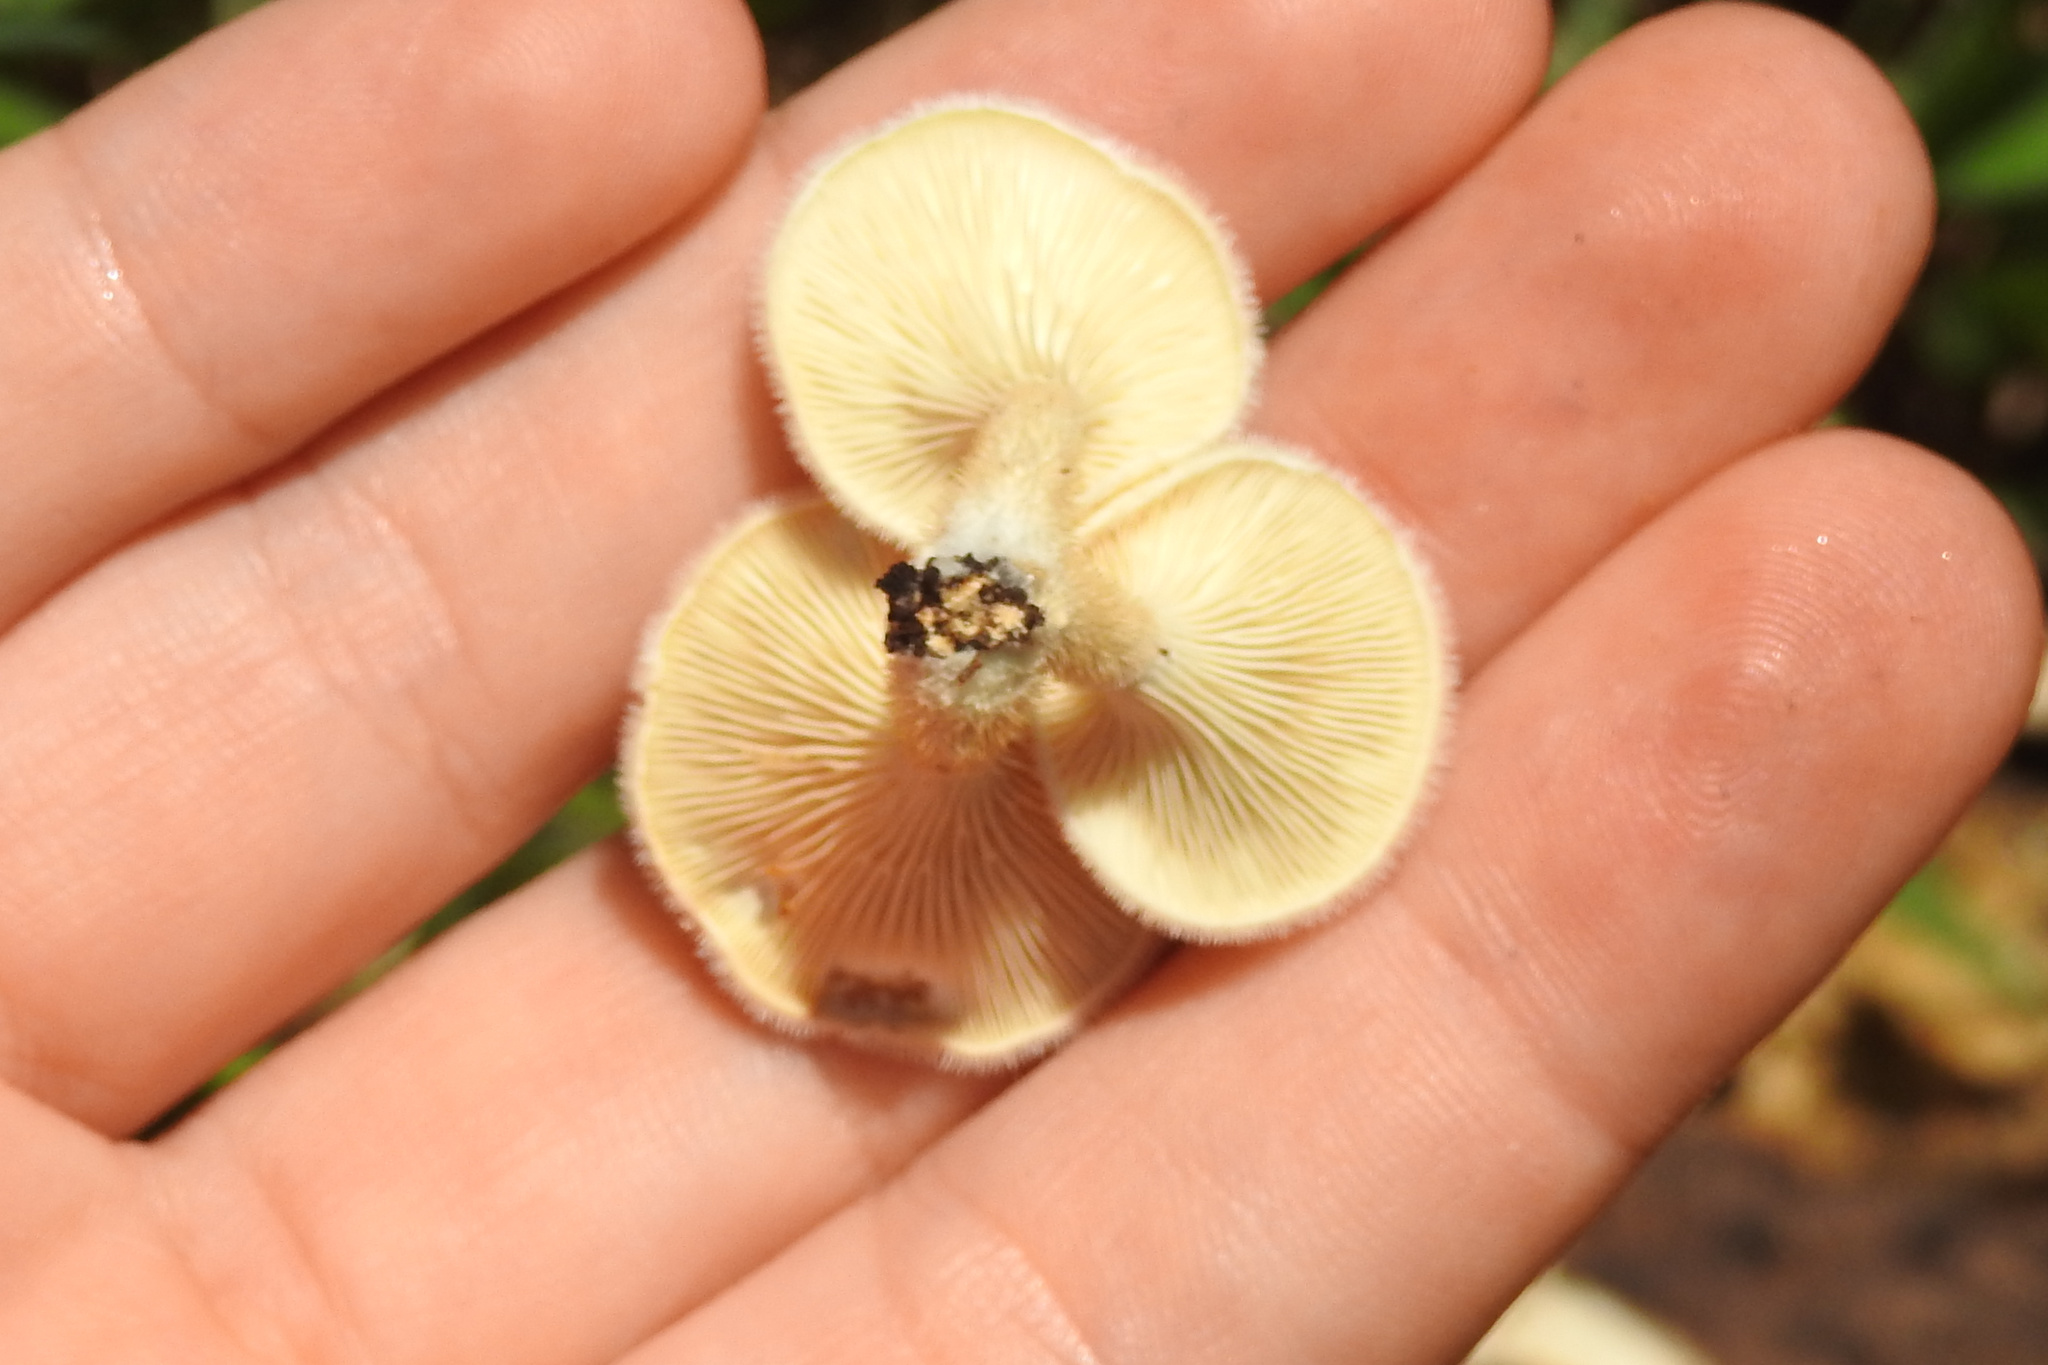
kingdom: Fungi
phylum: Basidiomycota
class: Agaricomycetes
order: Polyporales
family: Panaceae
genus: Panus
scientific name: Panus neostrigosus
